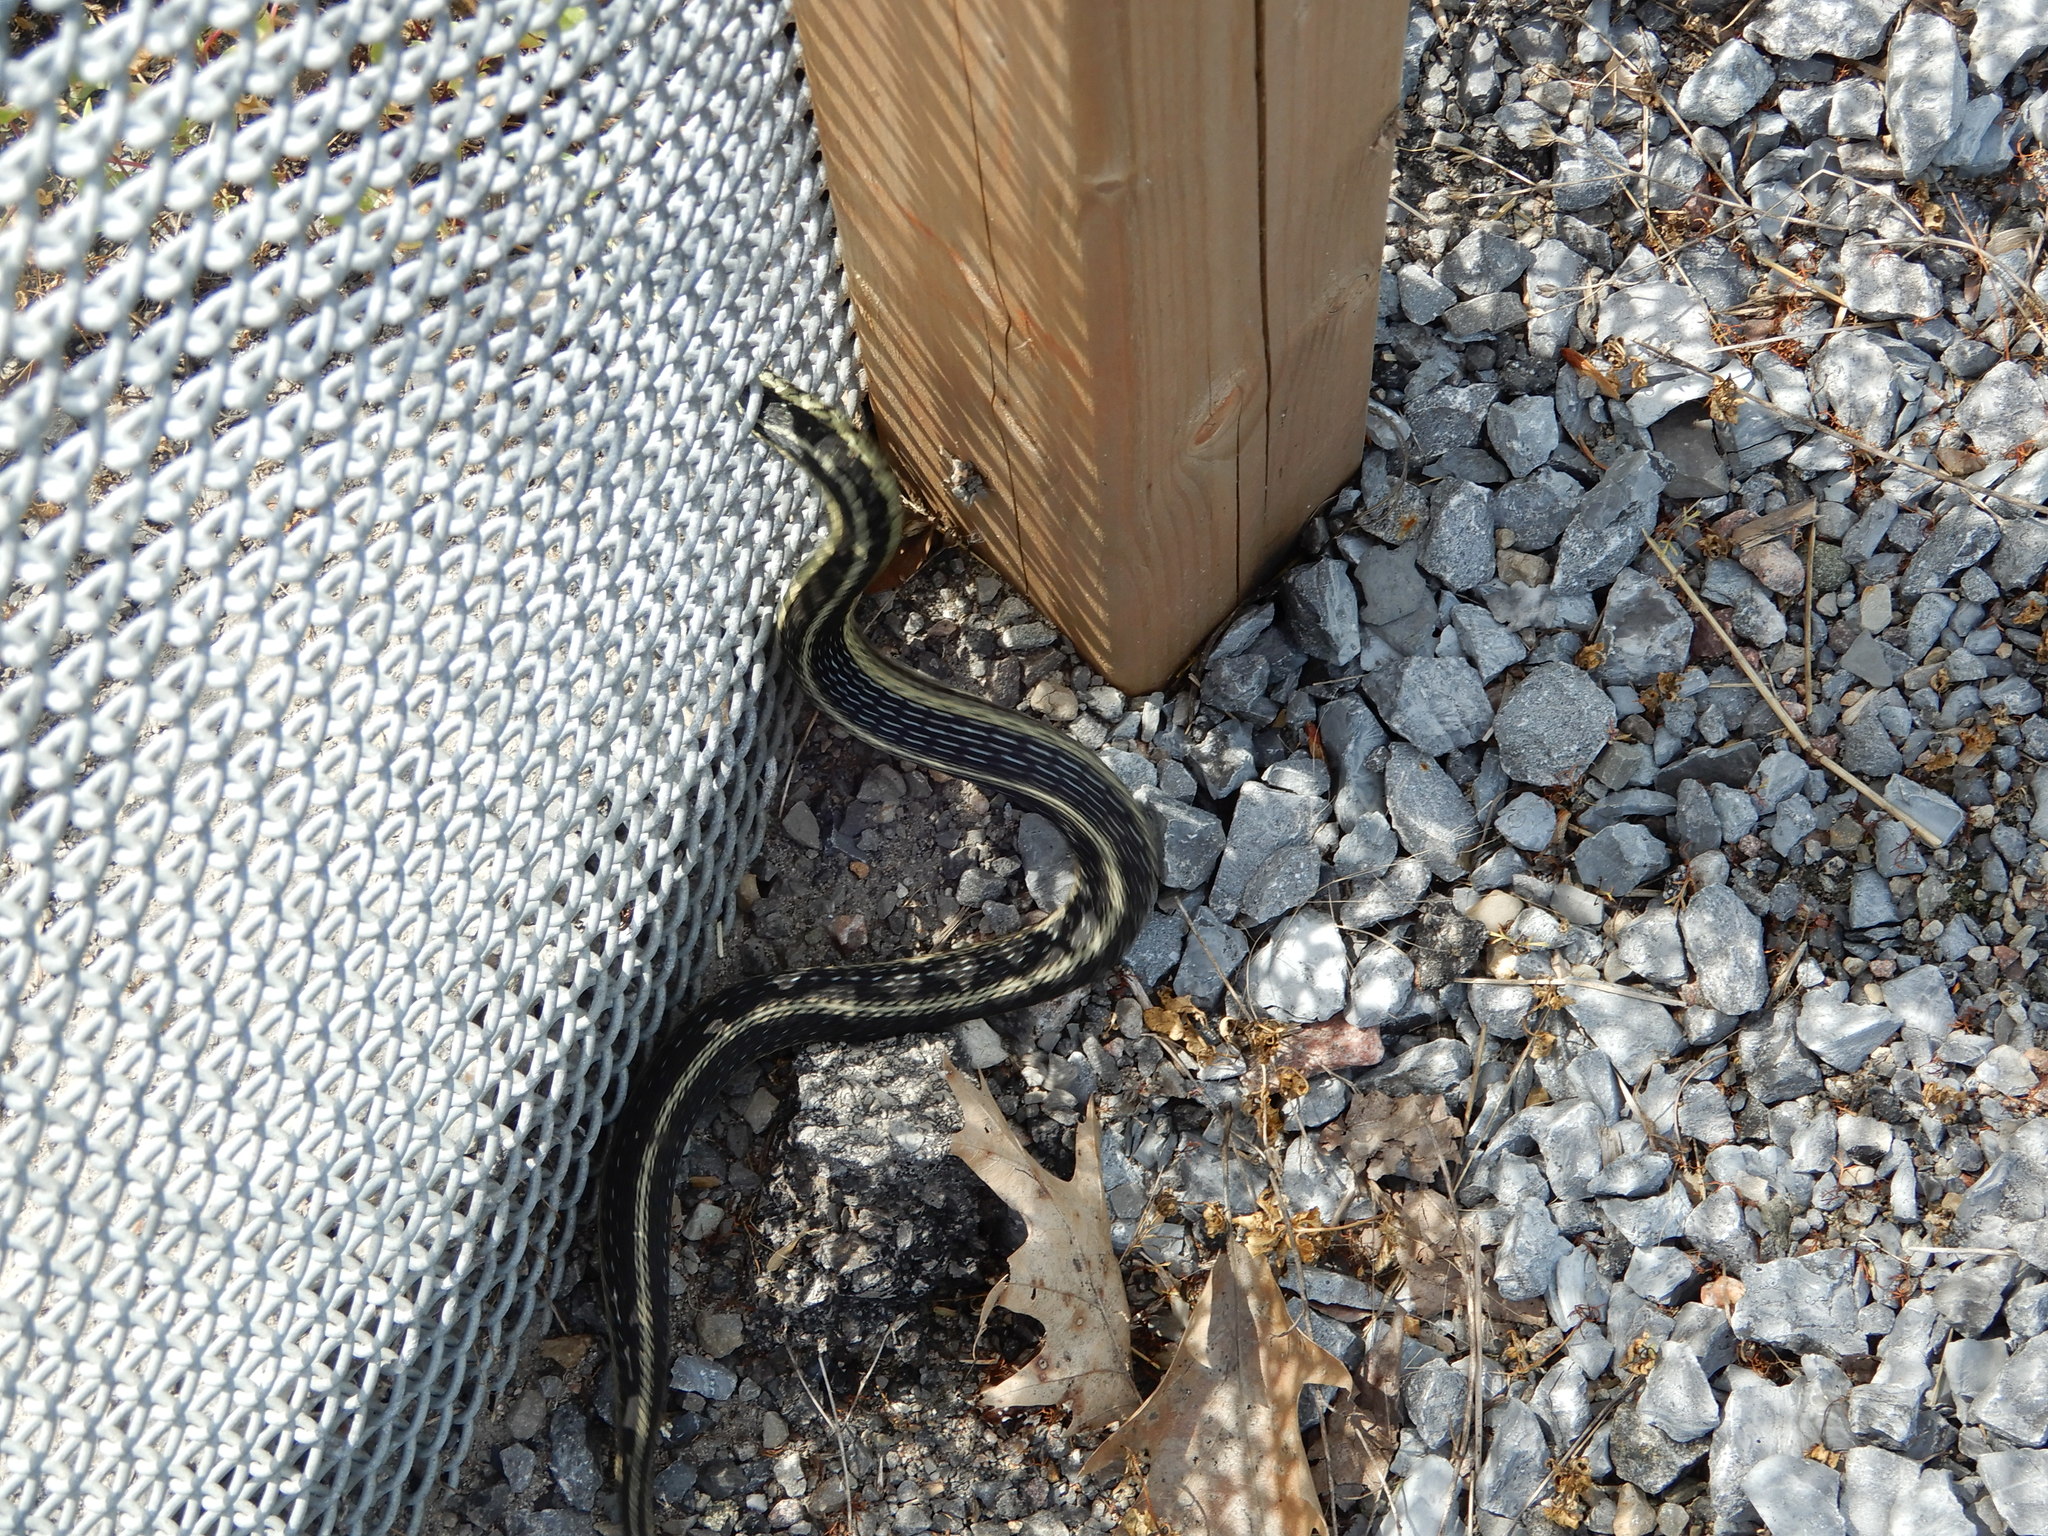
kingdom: Animalia
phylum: Chordata
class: Squamata
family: Colubridae
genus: Thamnophis
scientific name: Thamnophis sirtalis
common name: Common garter snake
